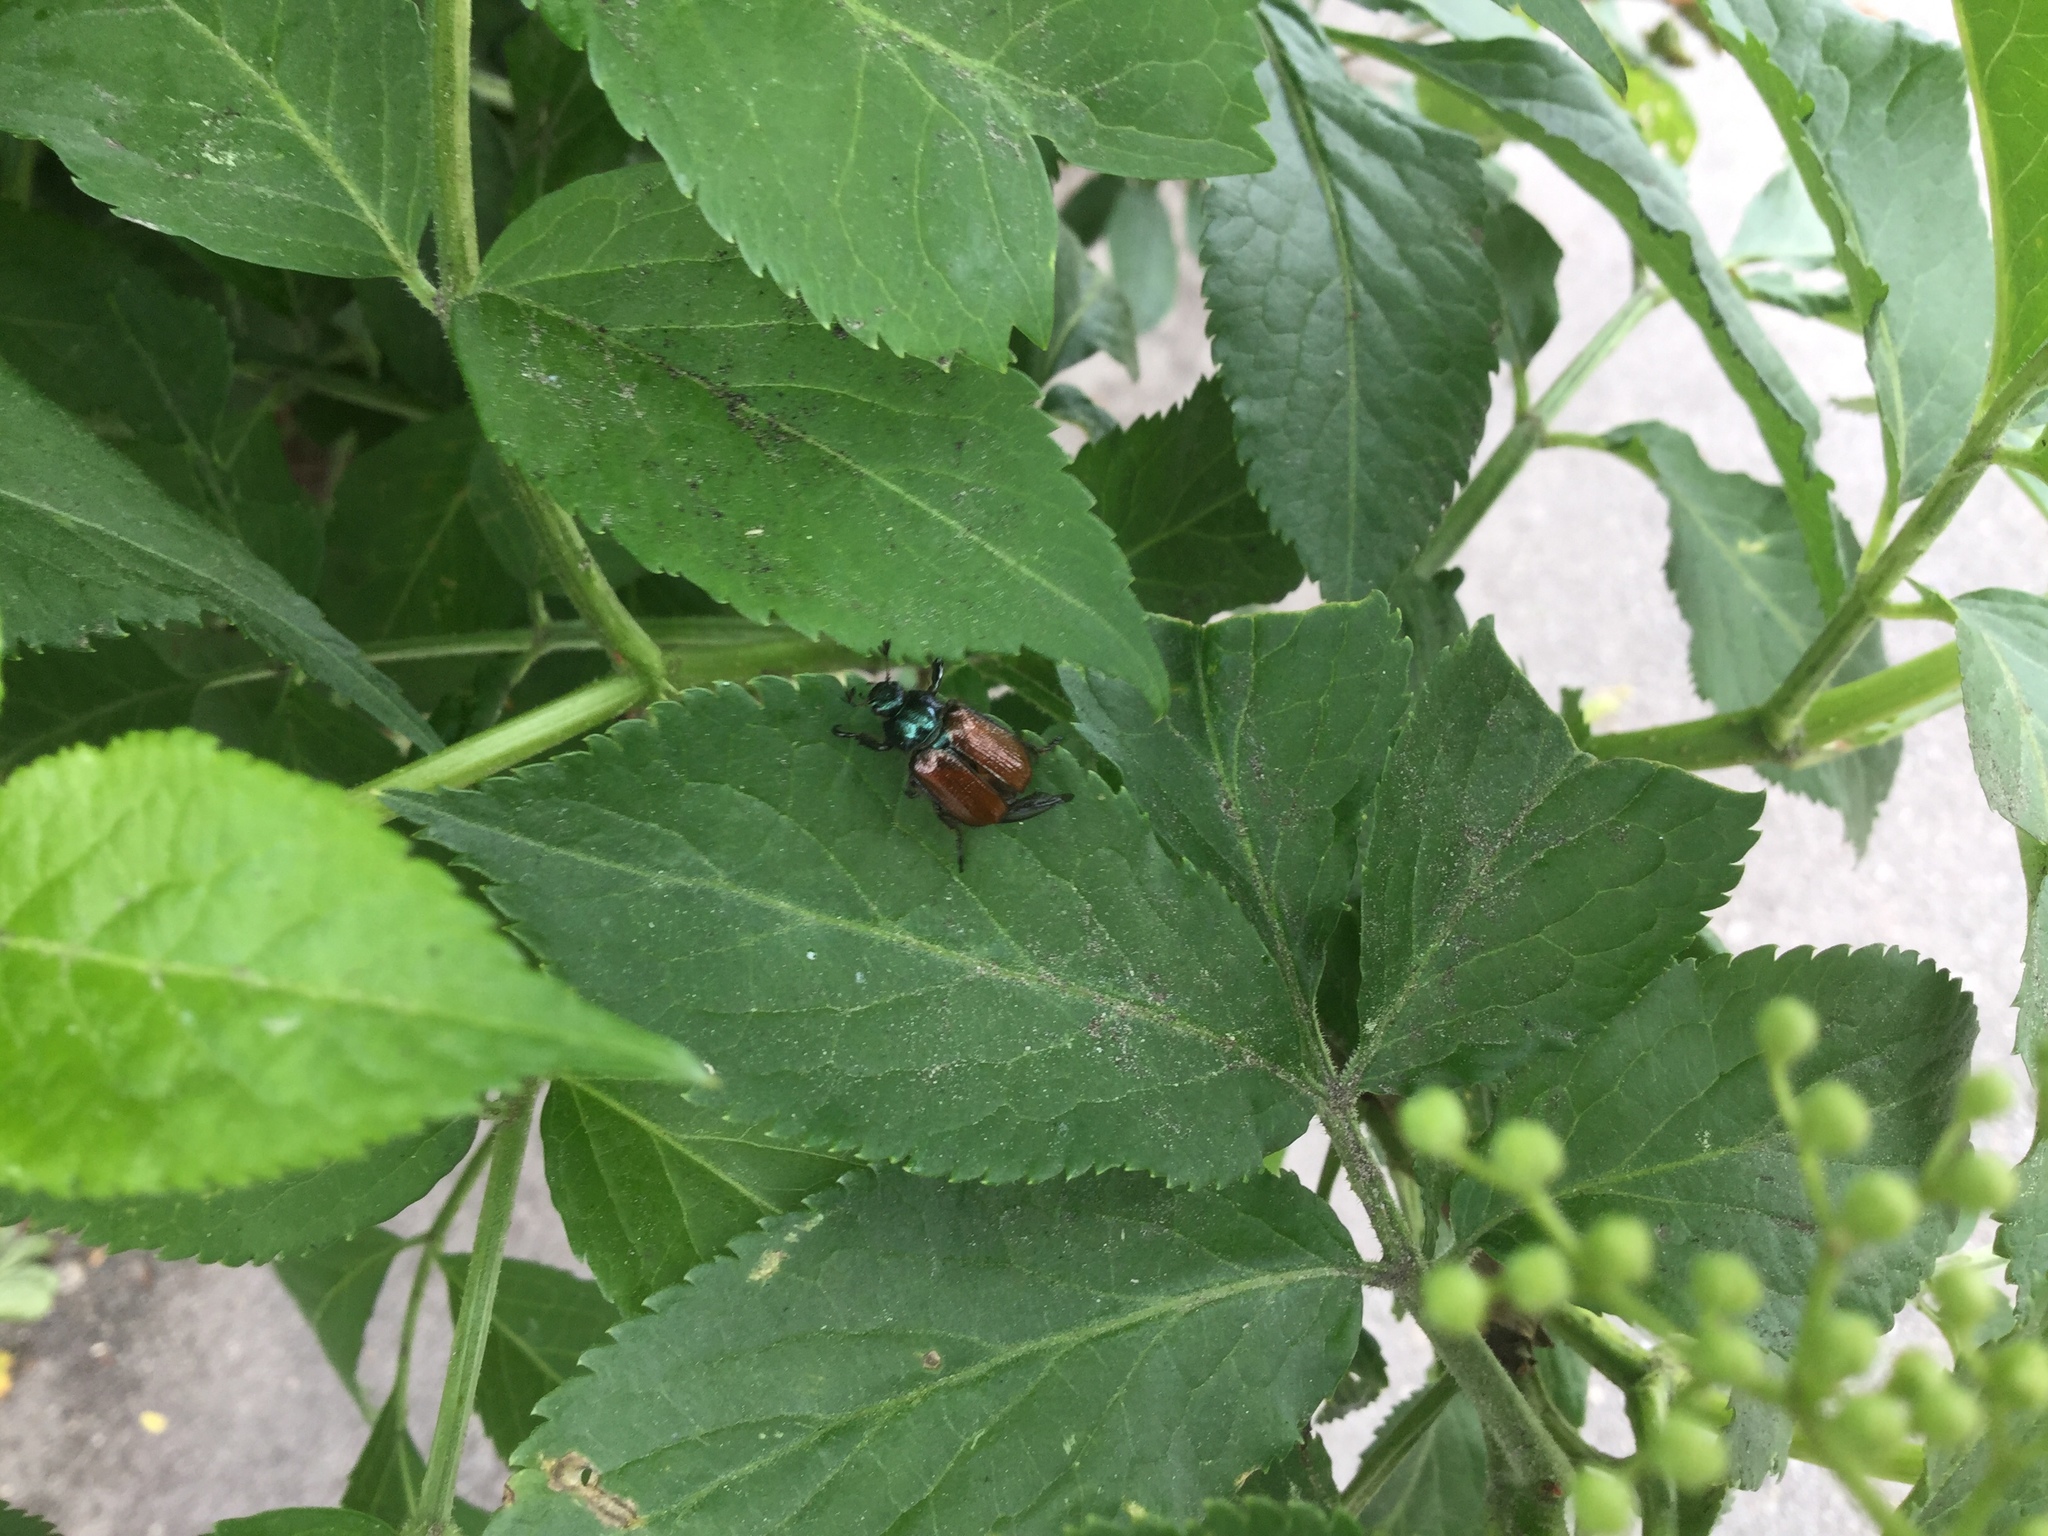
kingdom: Animalia
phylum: Arthropoda
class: Insecta
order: Coleoptera
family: Scarabaeidae
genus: Phyllopertha
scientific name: Phyllopertha horticola
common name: Garden chafer
